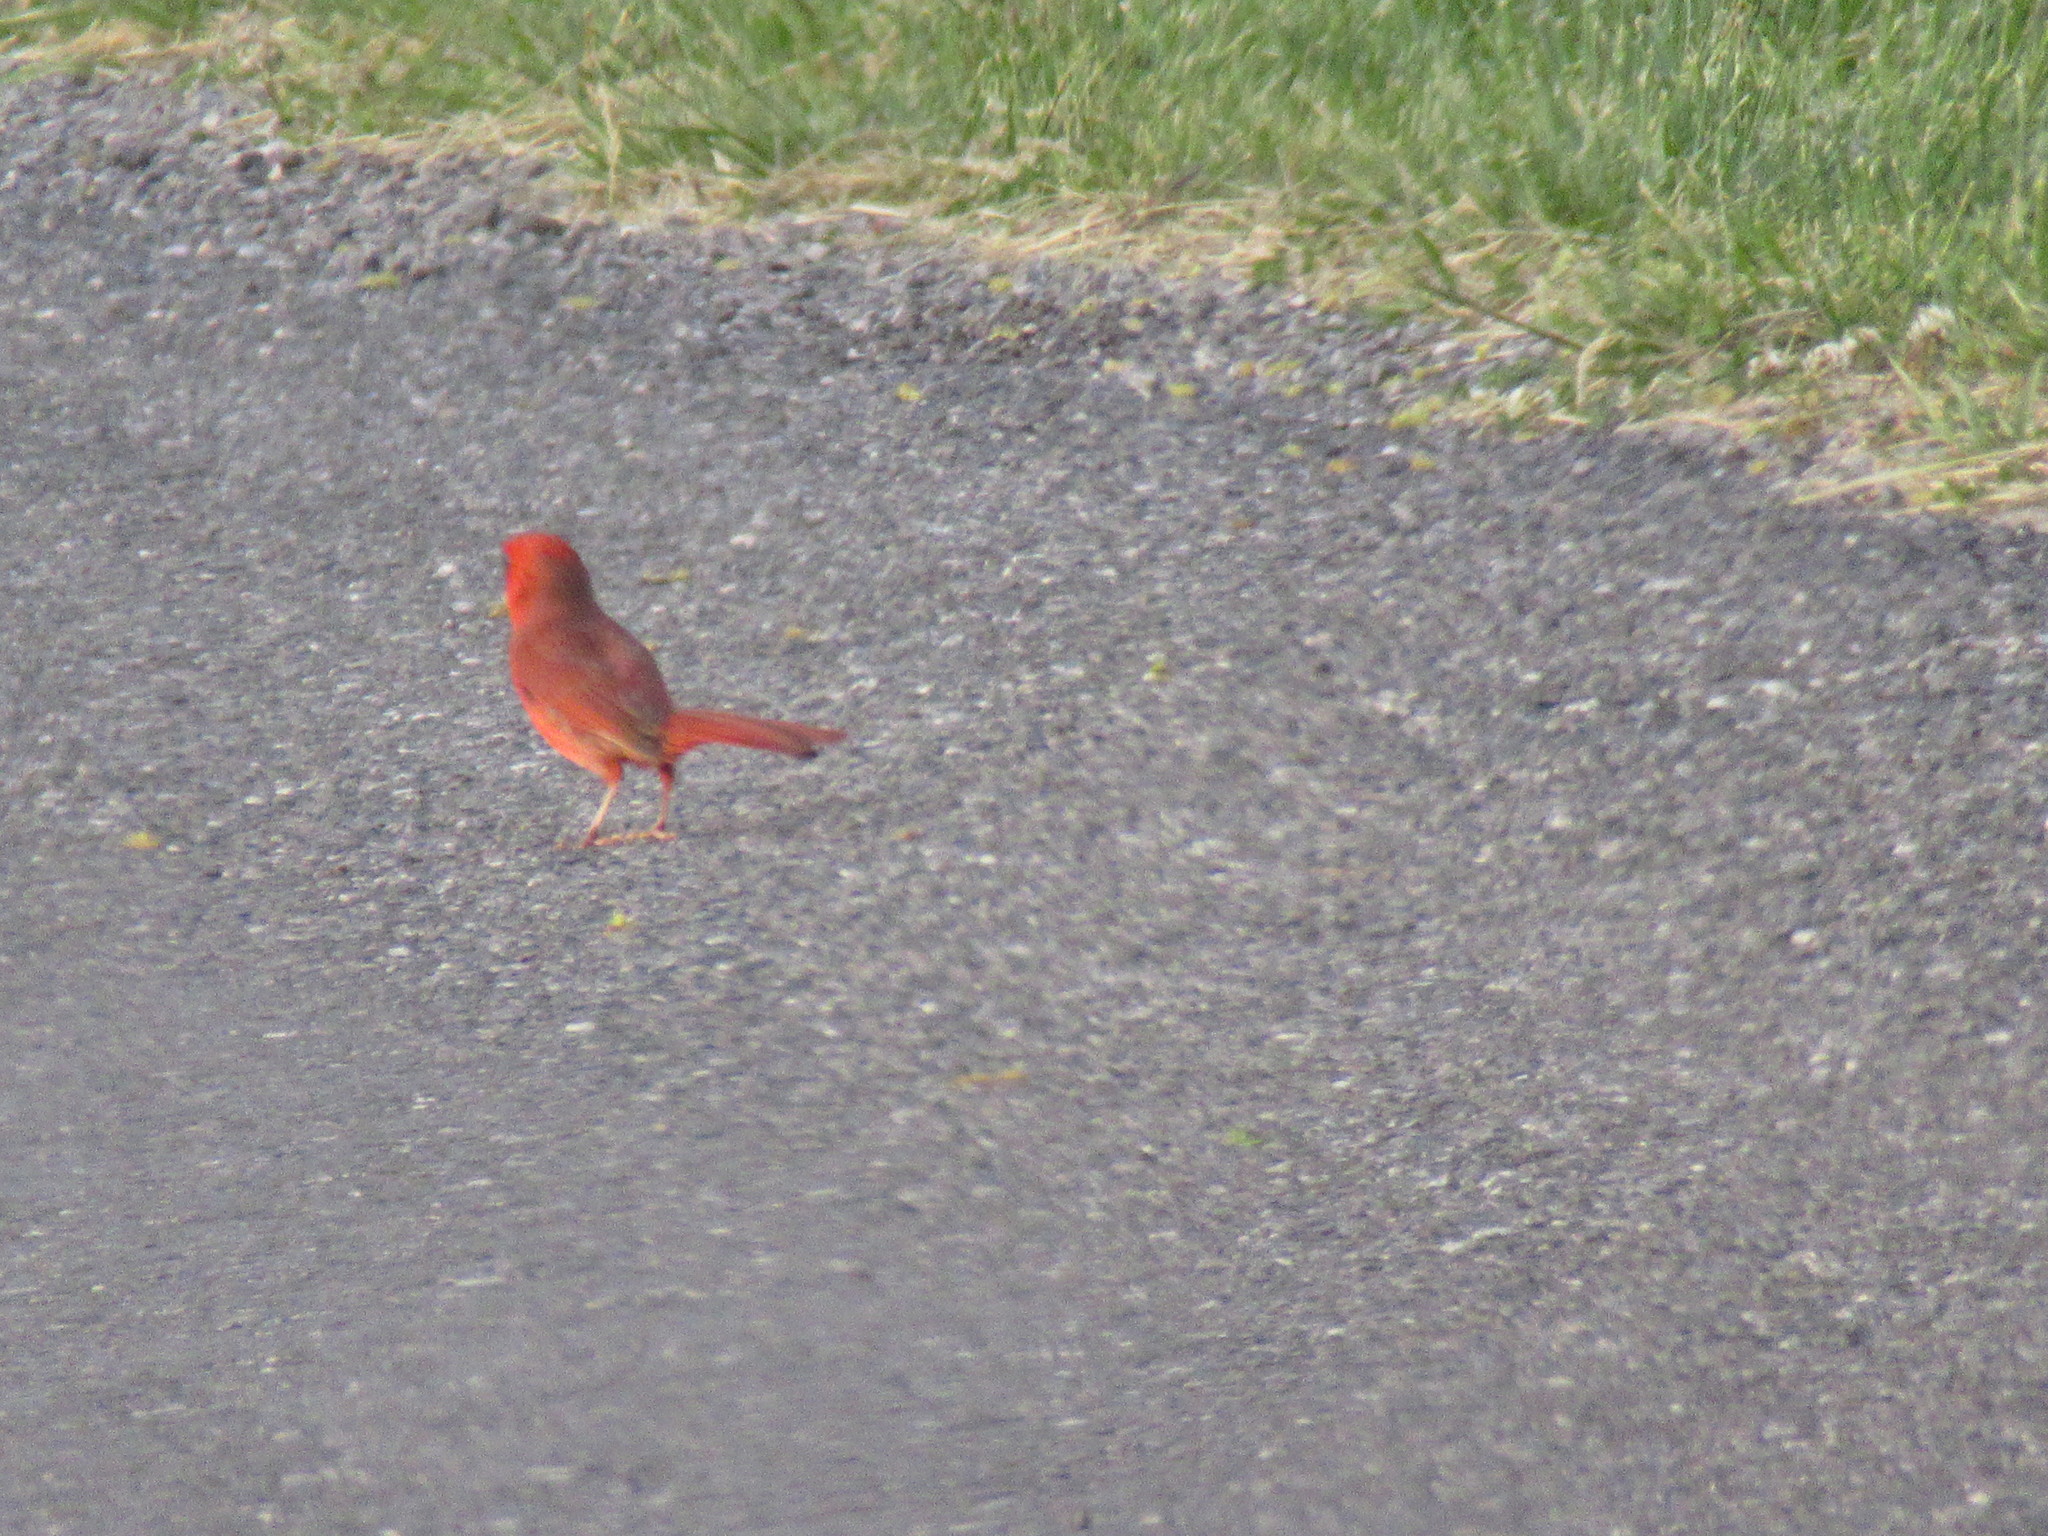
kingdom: Animalia
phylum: Chordata
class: Aves
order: Passeriformes
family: Cardinalidae
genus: Cardinalis
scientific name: Cardinalis cardinalis
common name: Northern cardinal
